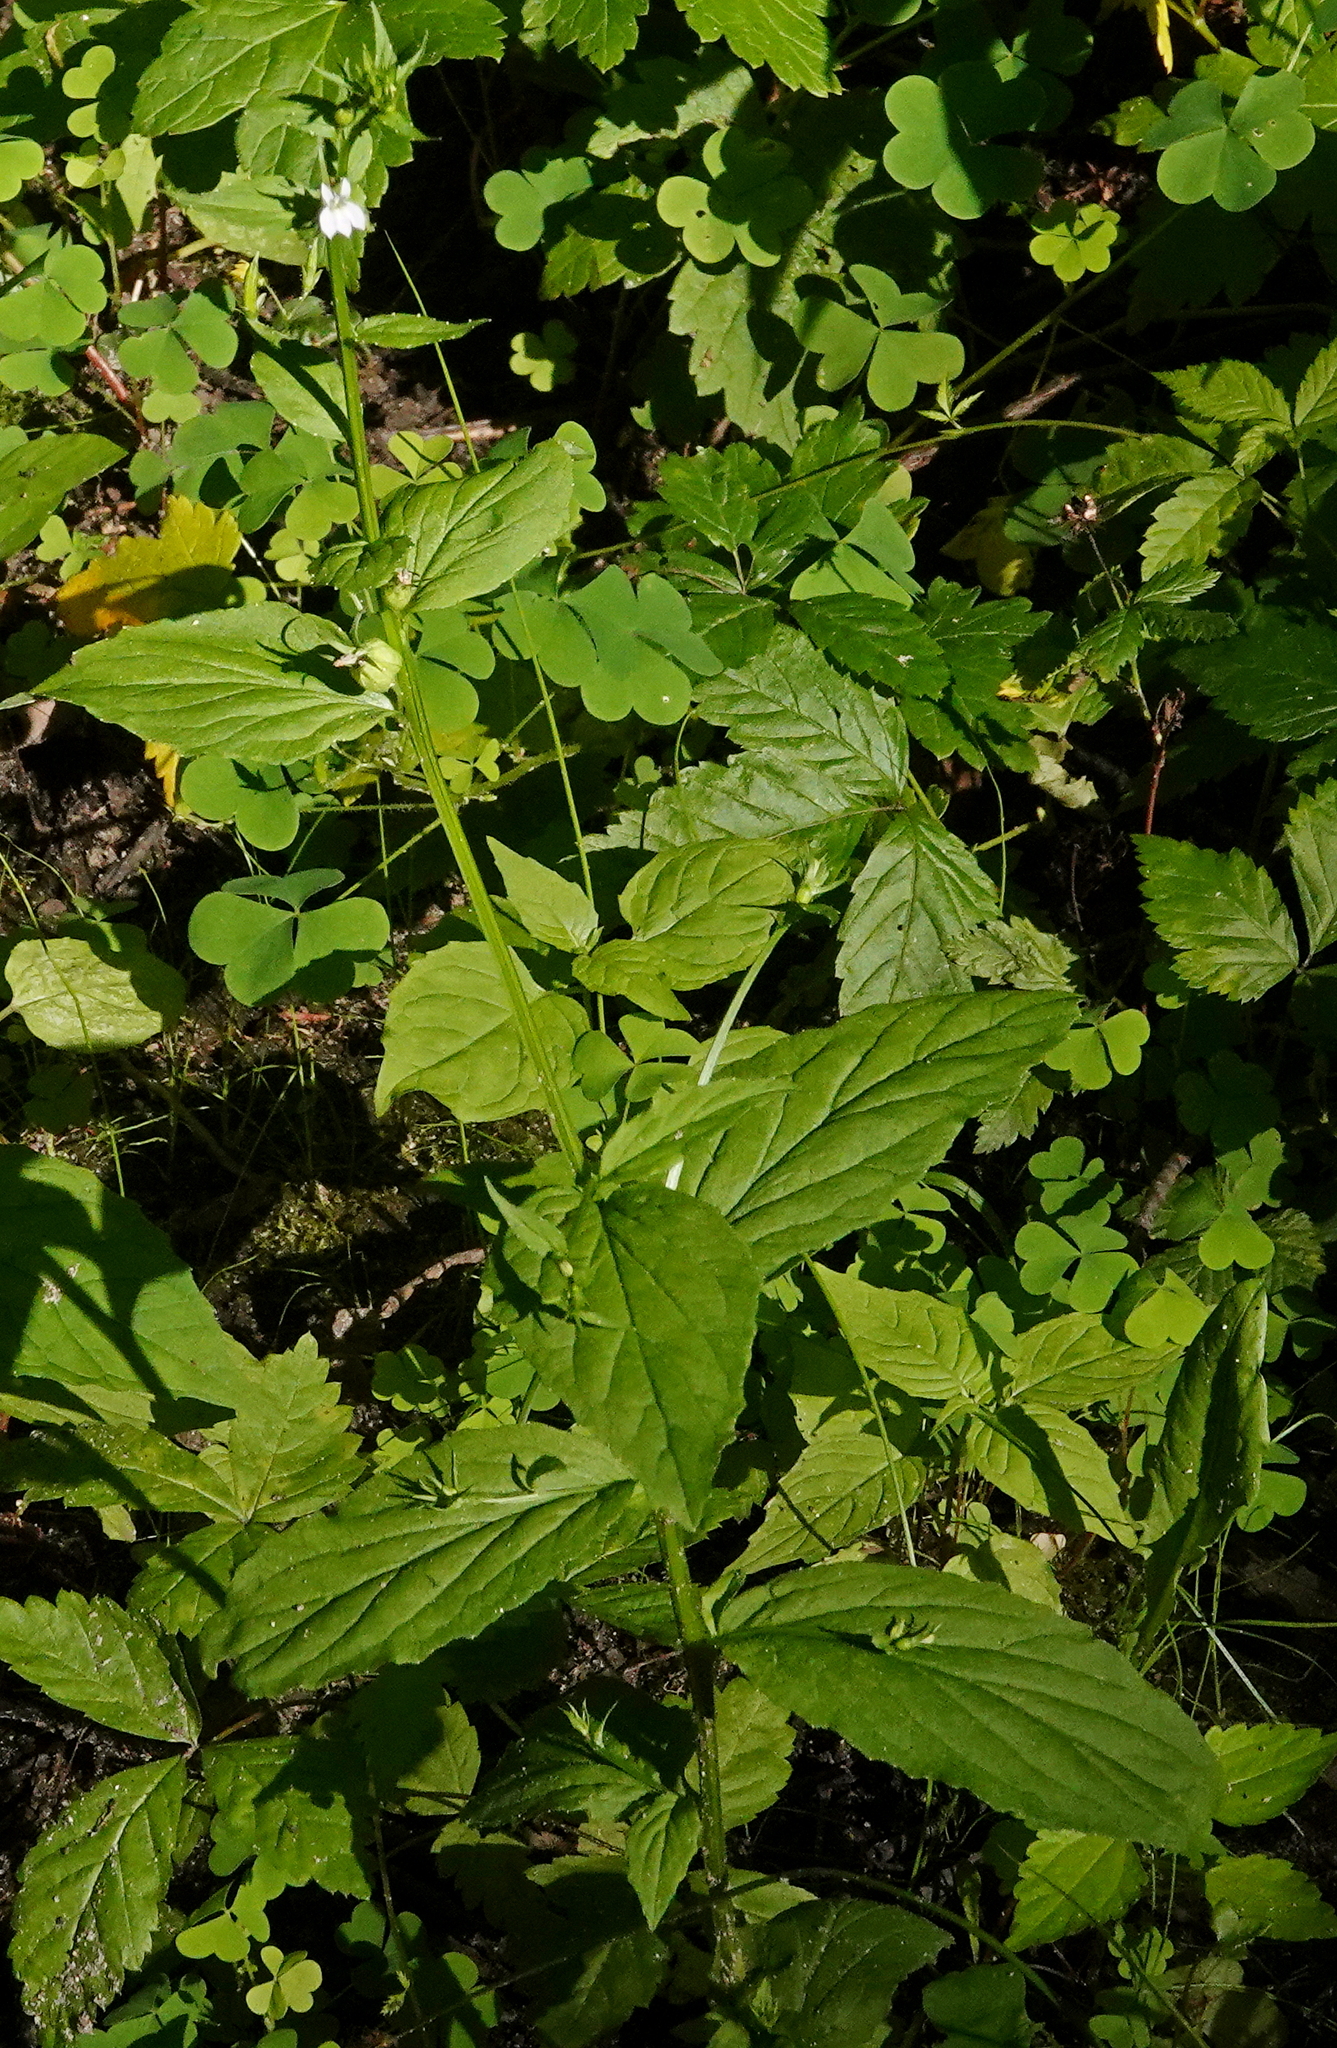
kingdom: Plantae
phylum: Tracheophyta
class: Magnoliopsida
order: Asterales
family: Campanulaceae
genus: Lobelia
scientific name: Lobelia inflata
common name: Indian tobacco
